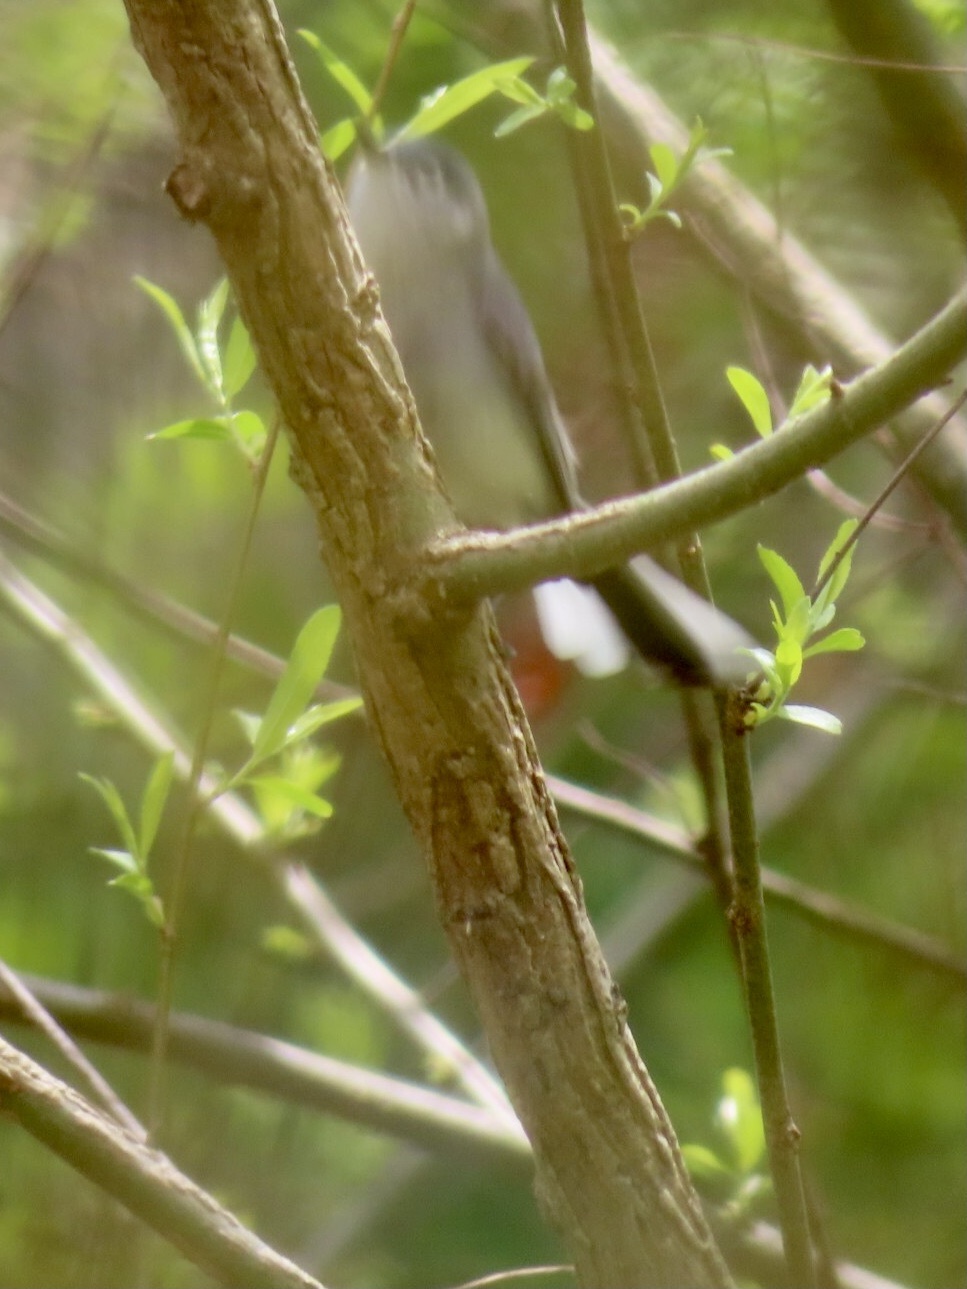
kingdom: Animalia
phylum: Chordata
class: Aves
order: Passeriformes
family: Polioptilidae
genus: Polioptila
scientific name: Polioptila caerulea
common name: Blue-gray gnatcatcher
